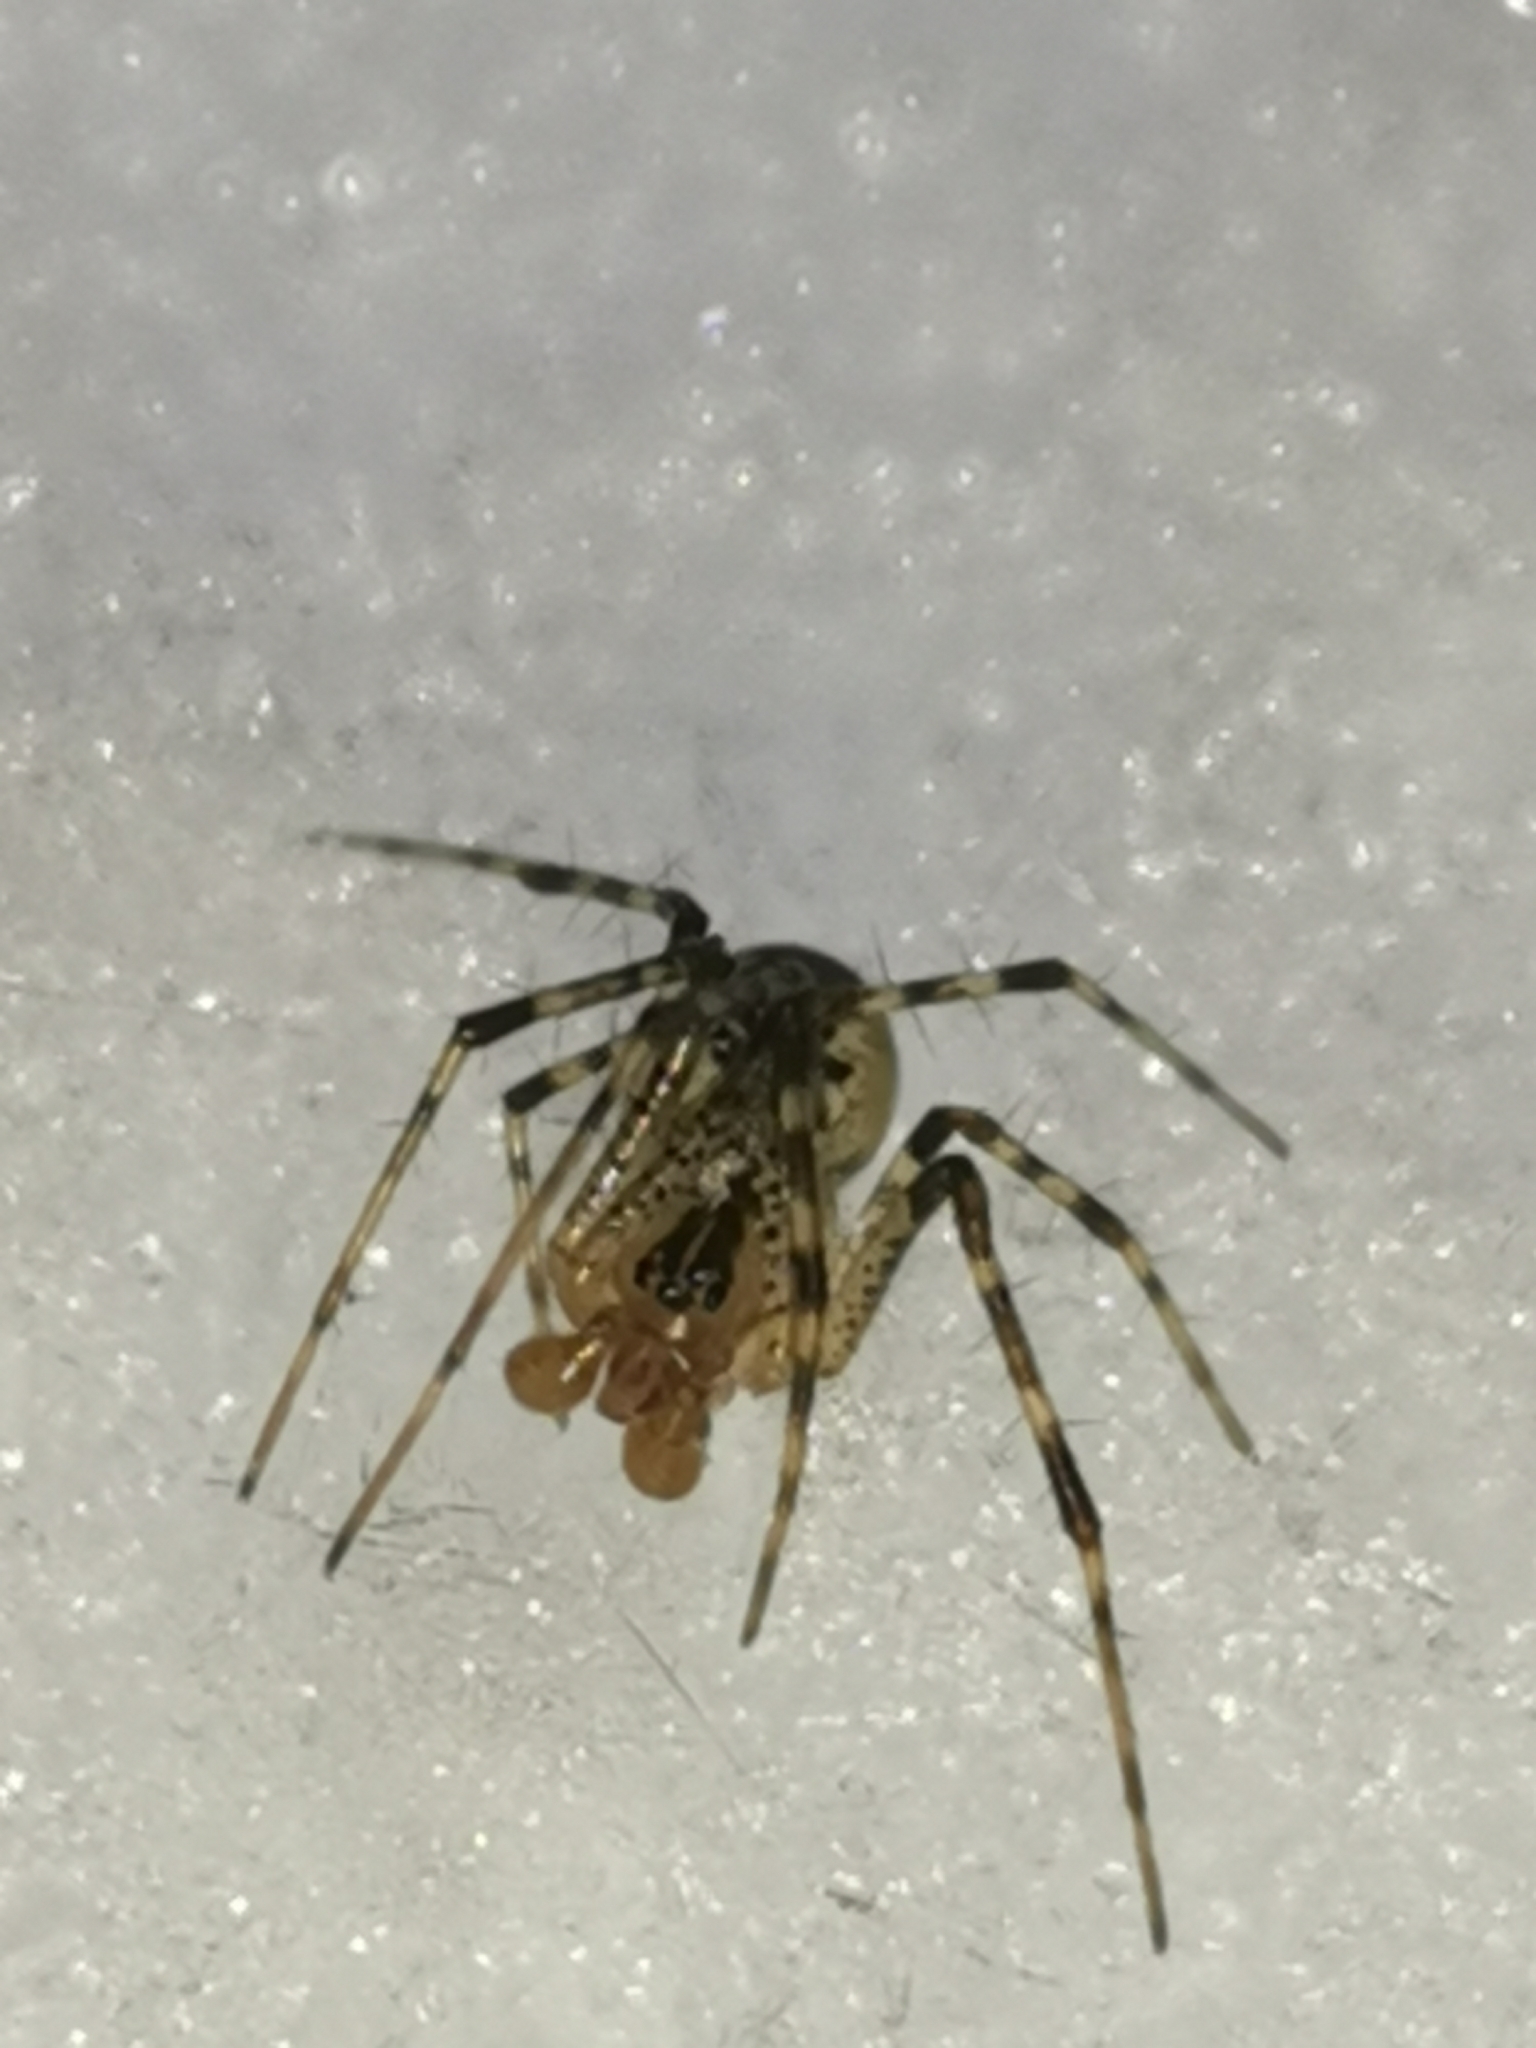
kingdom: Animalia
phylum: Arthropoda
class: Arachnida
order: Araneae
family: Linyphiidae
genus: Pityohyphantes
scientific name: Pityohyphantes phrygianus
